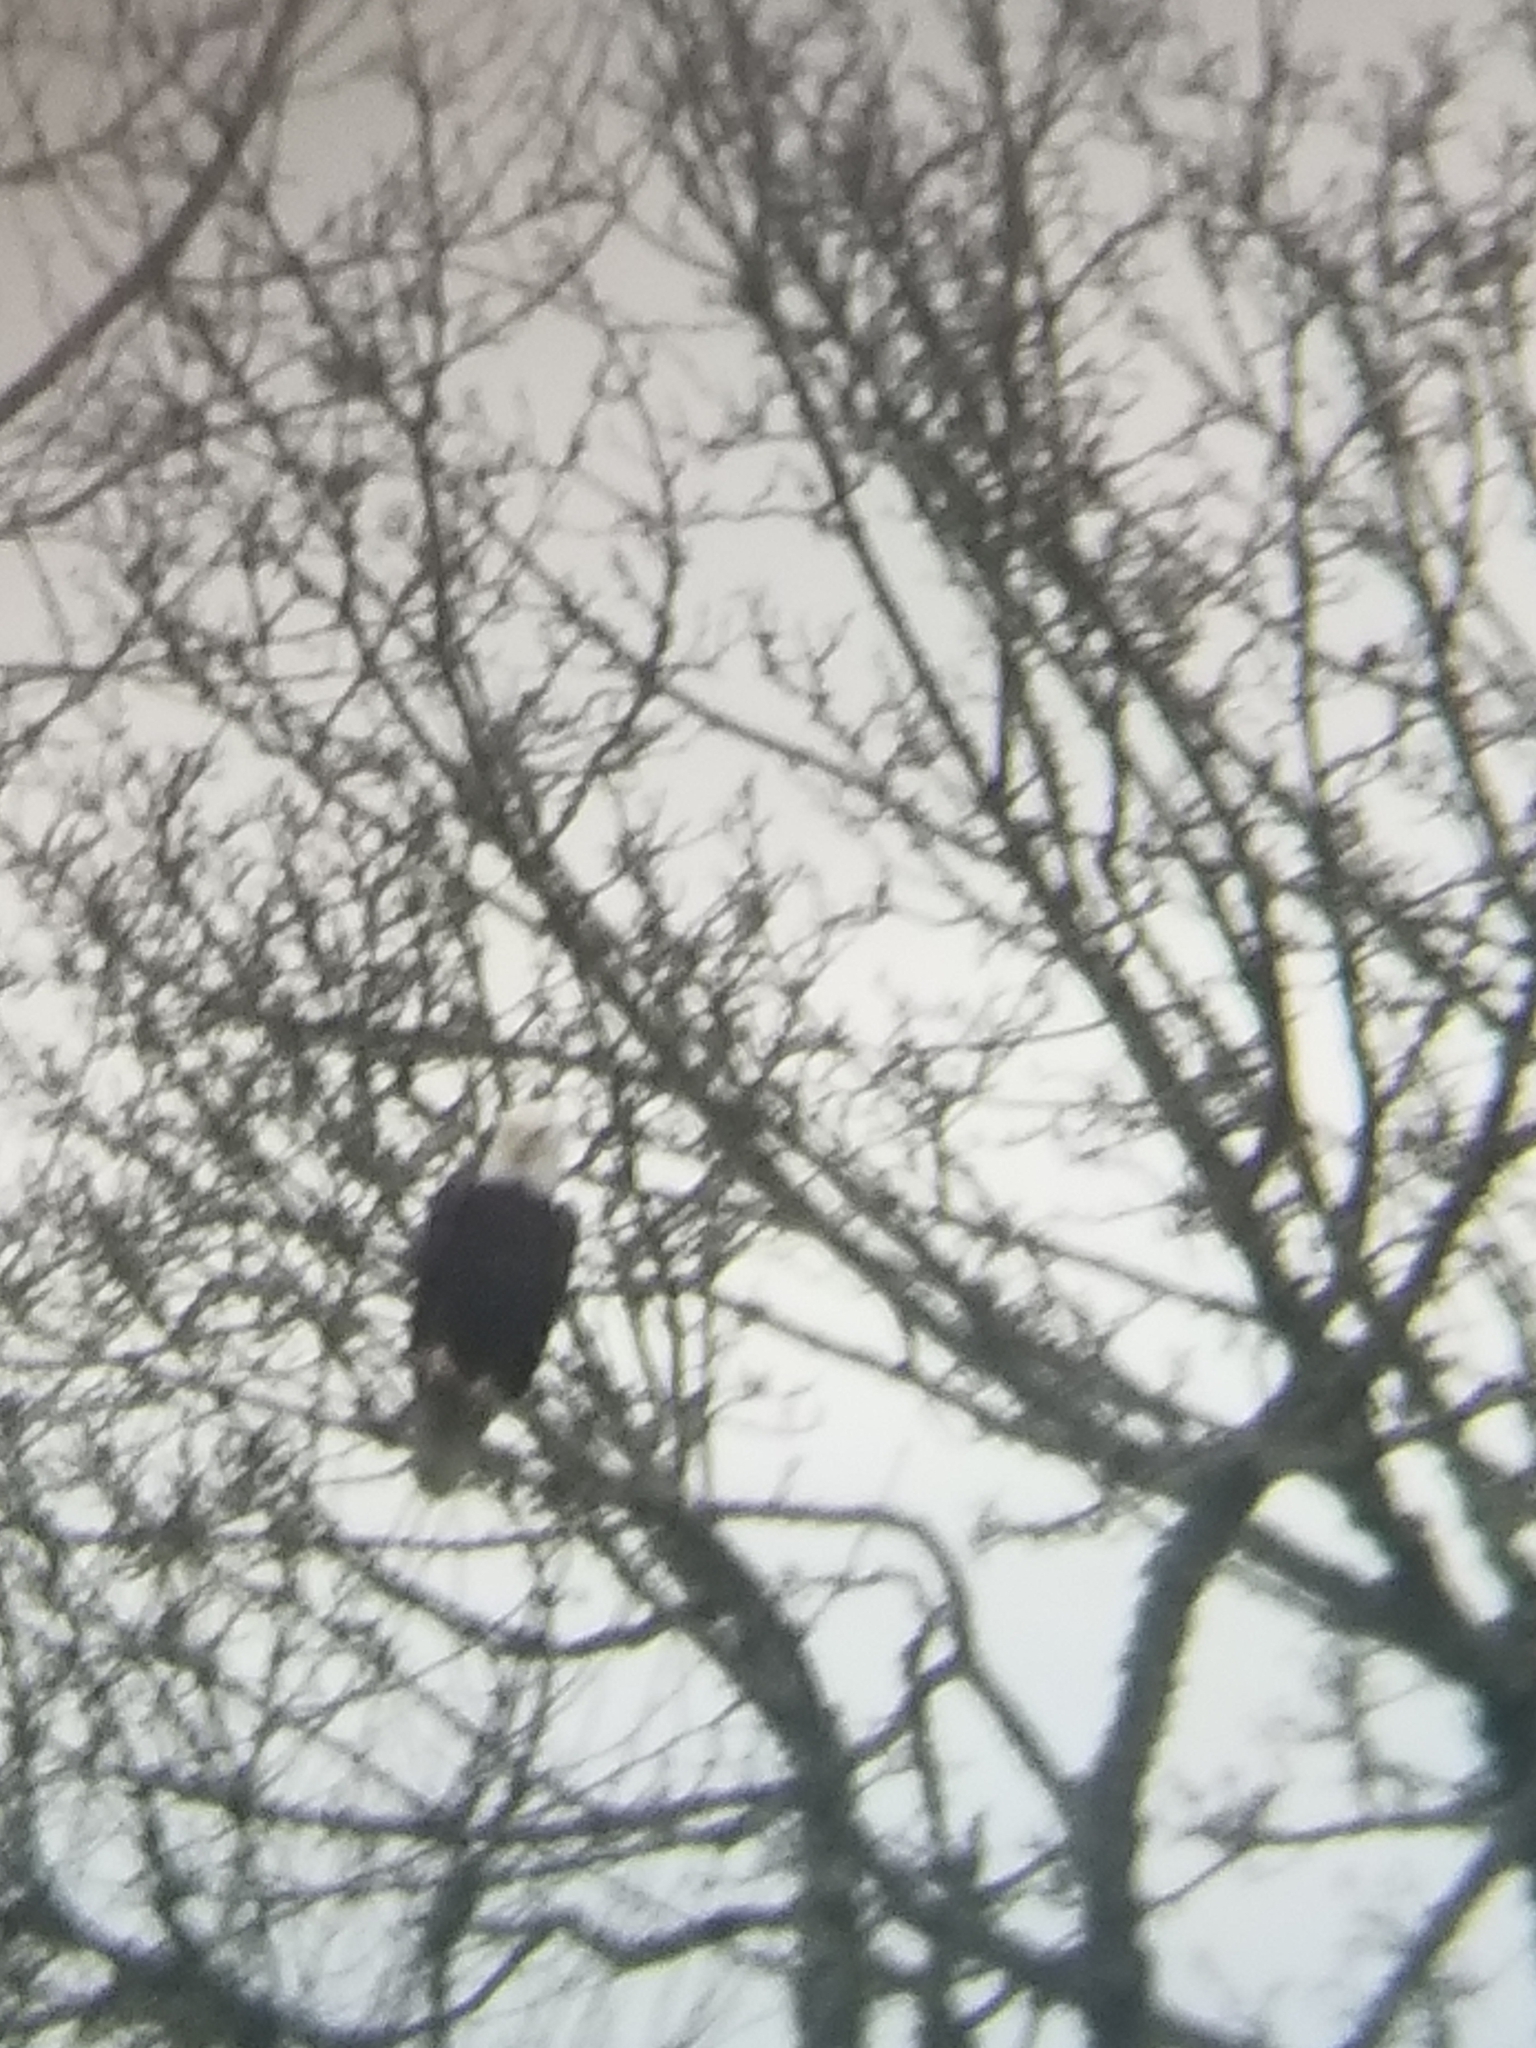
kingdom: Animalia
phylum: Chordata
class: Aves
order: Accipitriformes
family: Accipitridae
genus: Haliaeetus
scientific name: Haliaeetus leucocephalus
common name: Bald eagle
